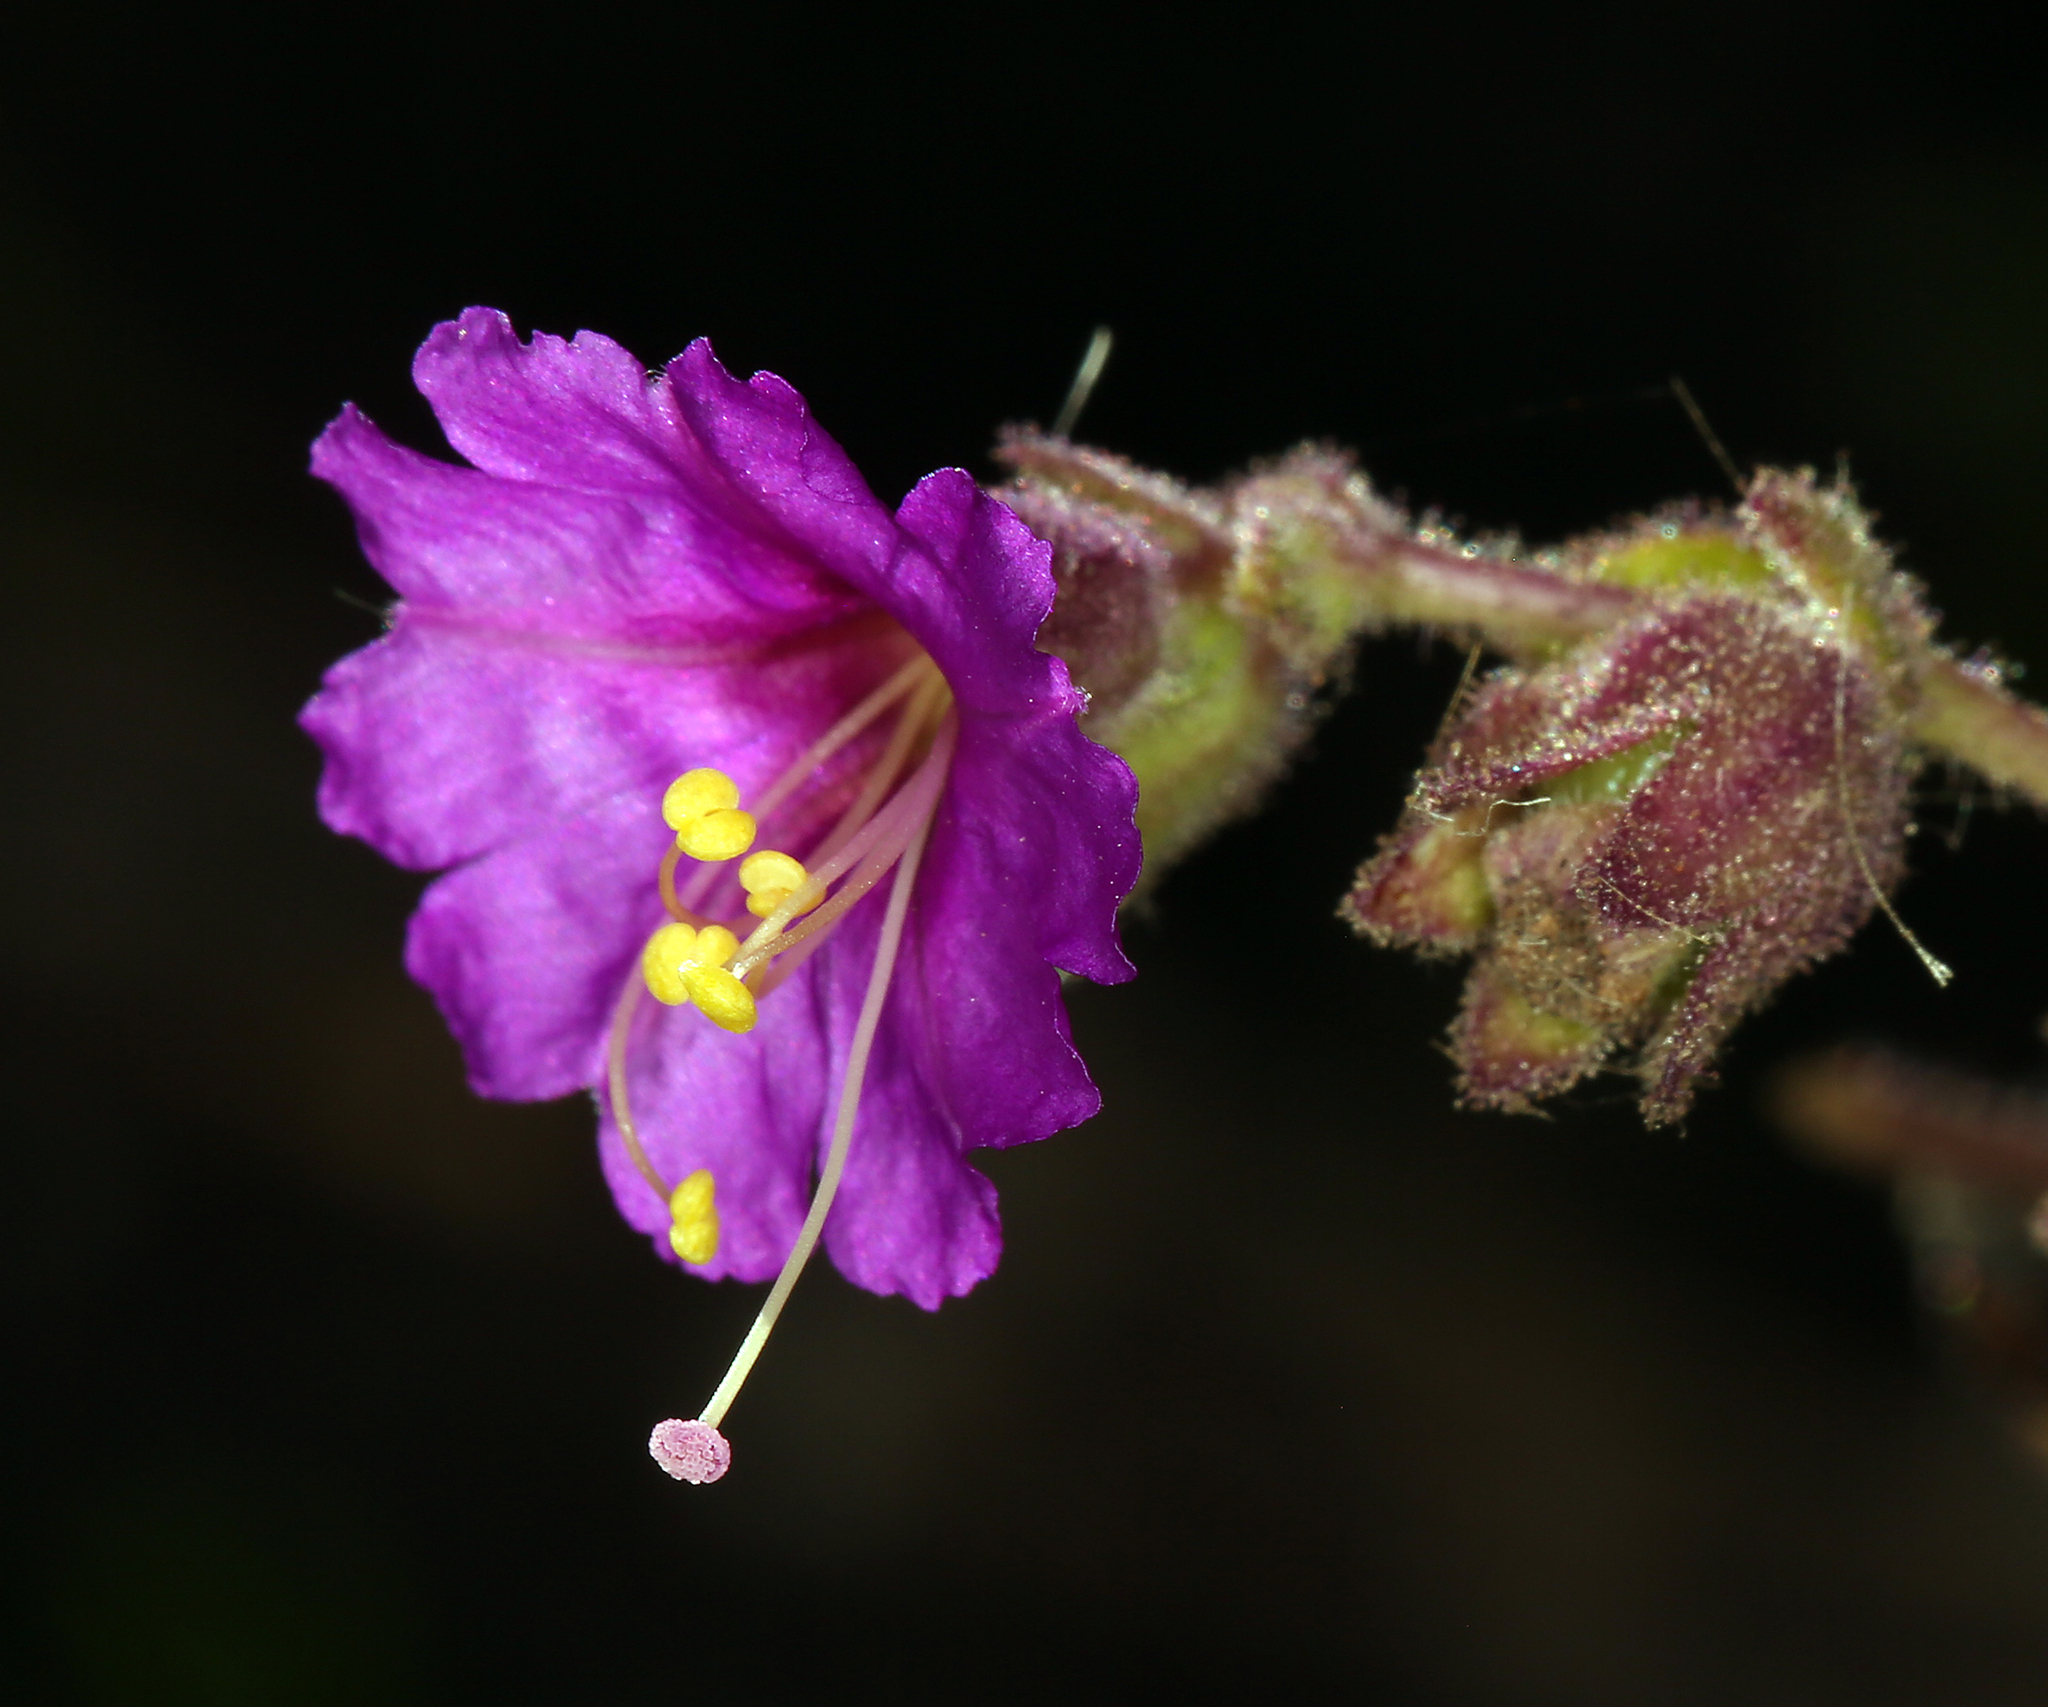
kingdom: Plantae
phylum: Tracheophyta
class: Magnoliopsida
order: Caryophyllales
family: Nyctaginaceae
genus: Mirabilis
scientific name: Mirabilis laevis
